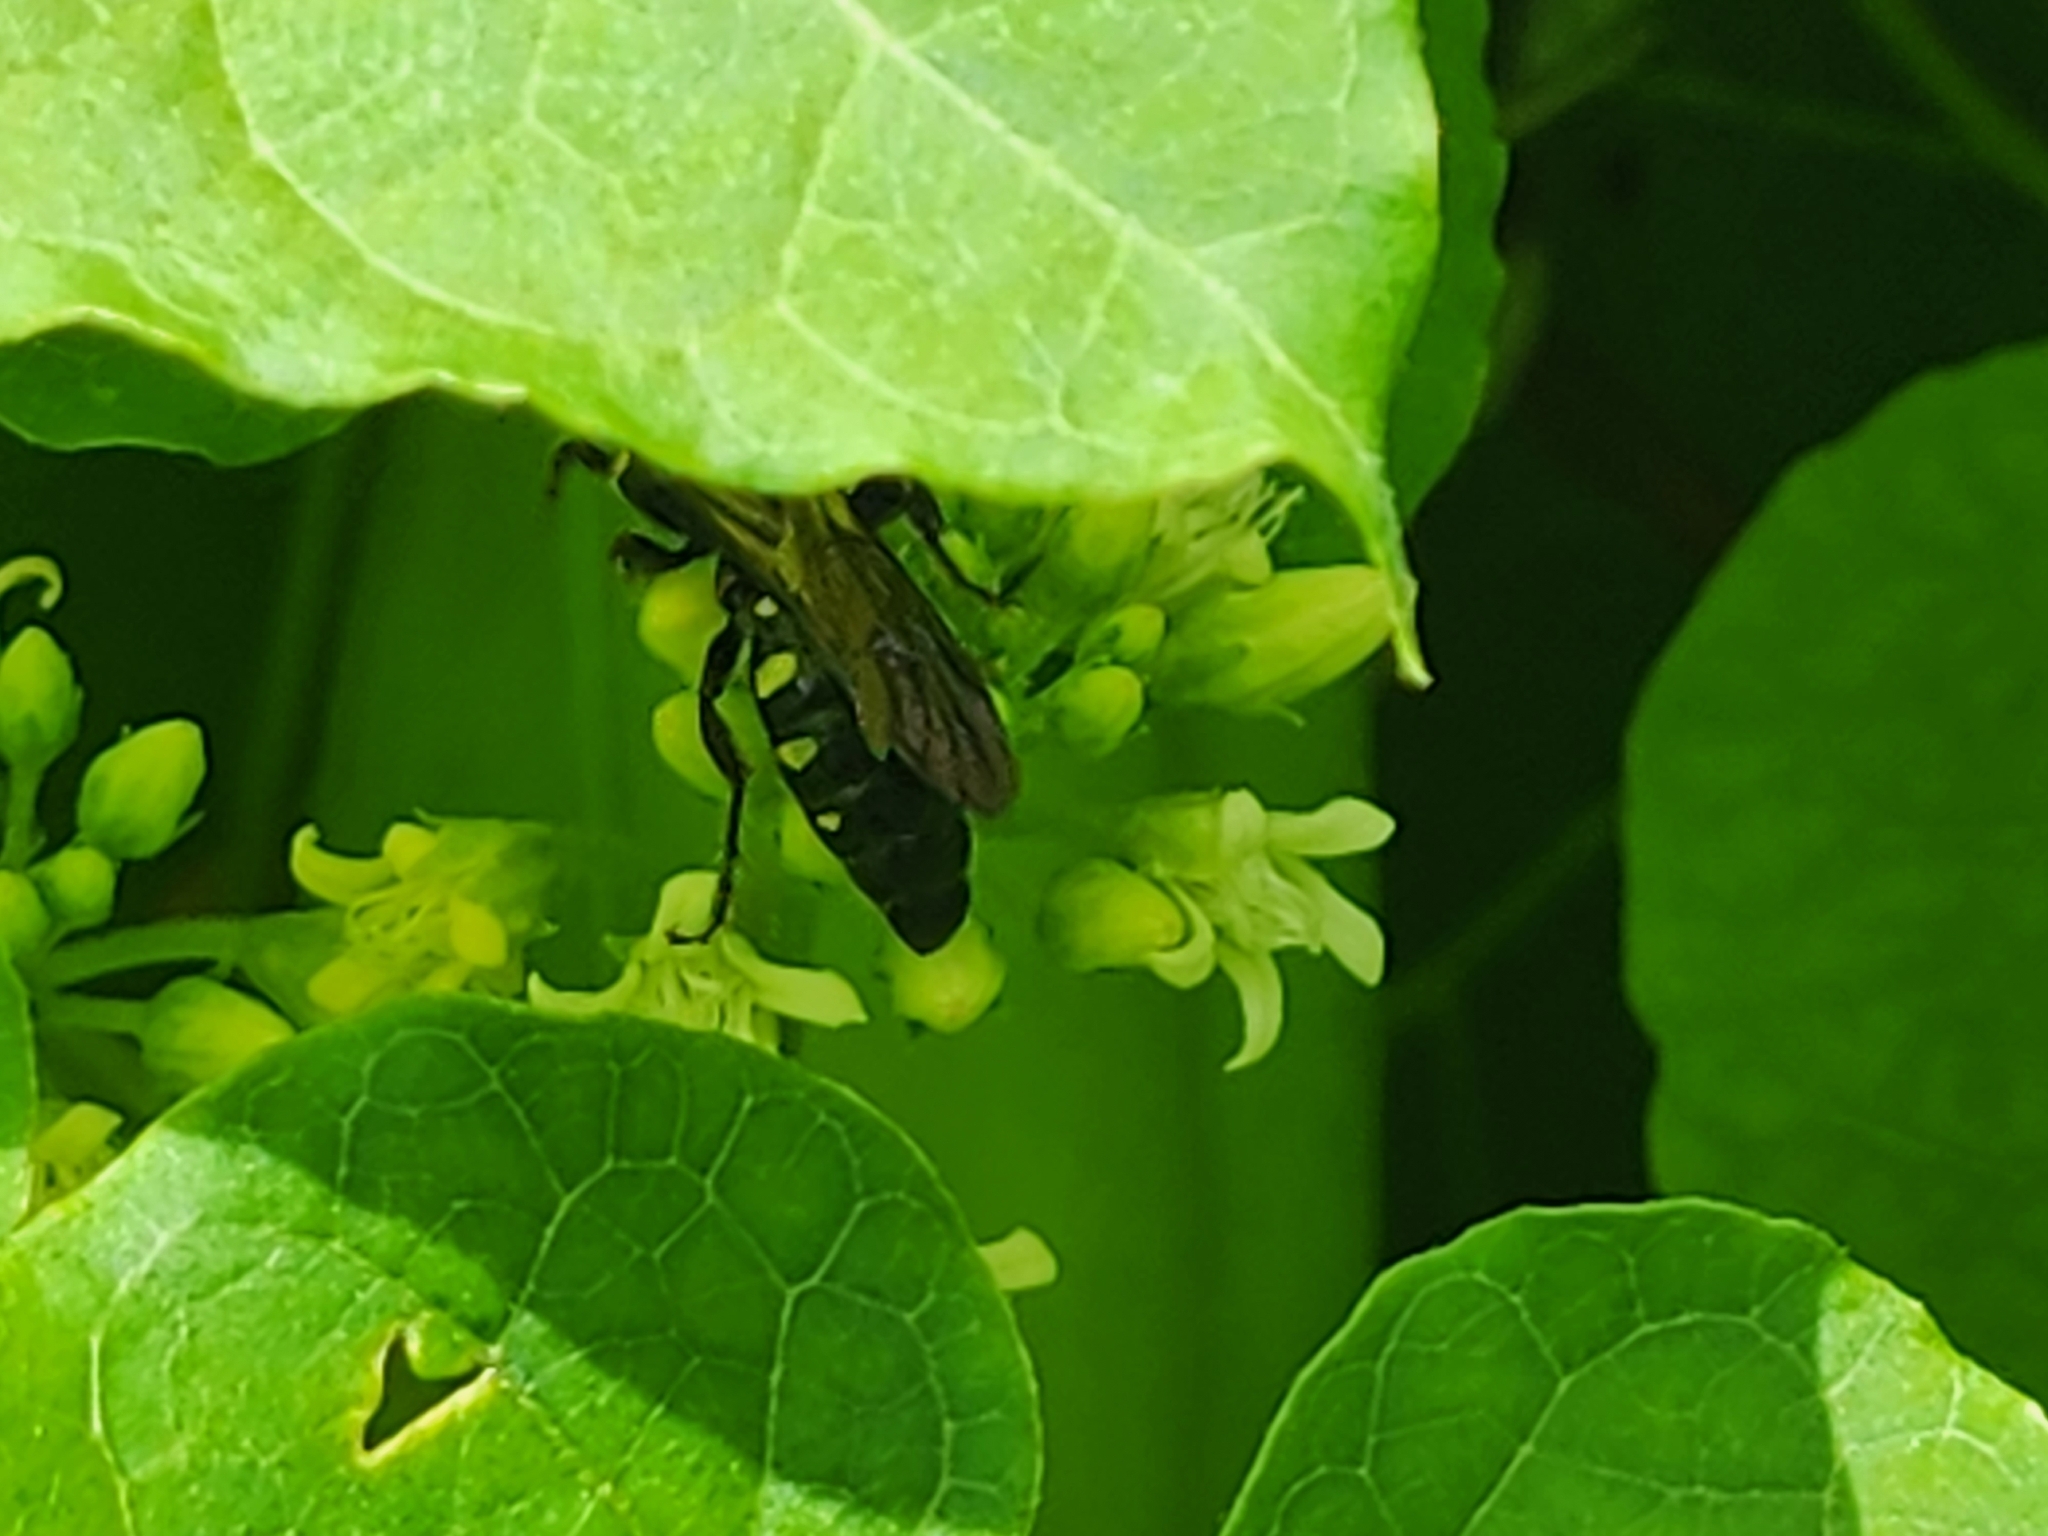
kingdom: Animalia
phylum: Arthropoda
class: Insecta
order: Hymenoptera
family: Tiphiidae
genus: Myzinum
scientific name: Myzinum obscurum
